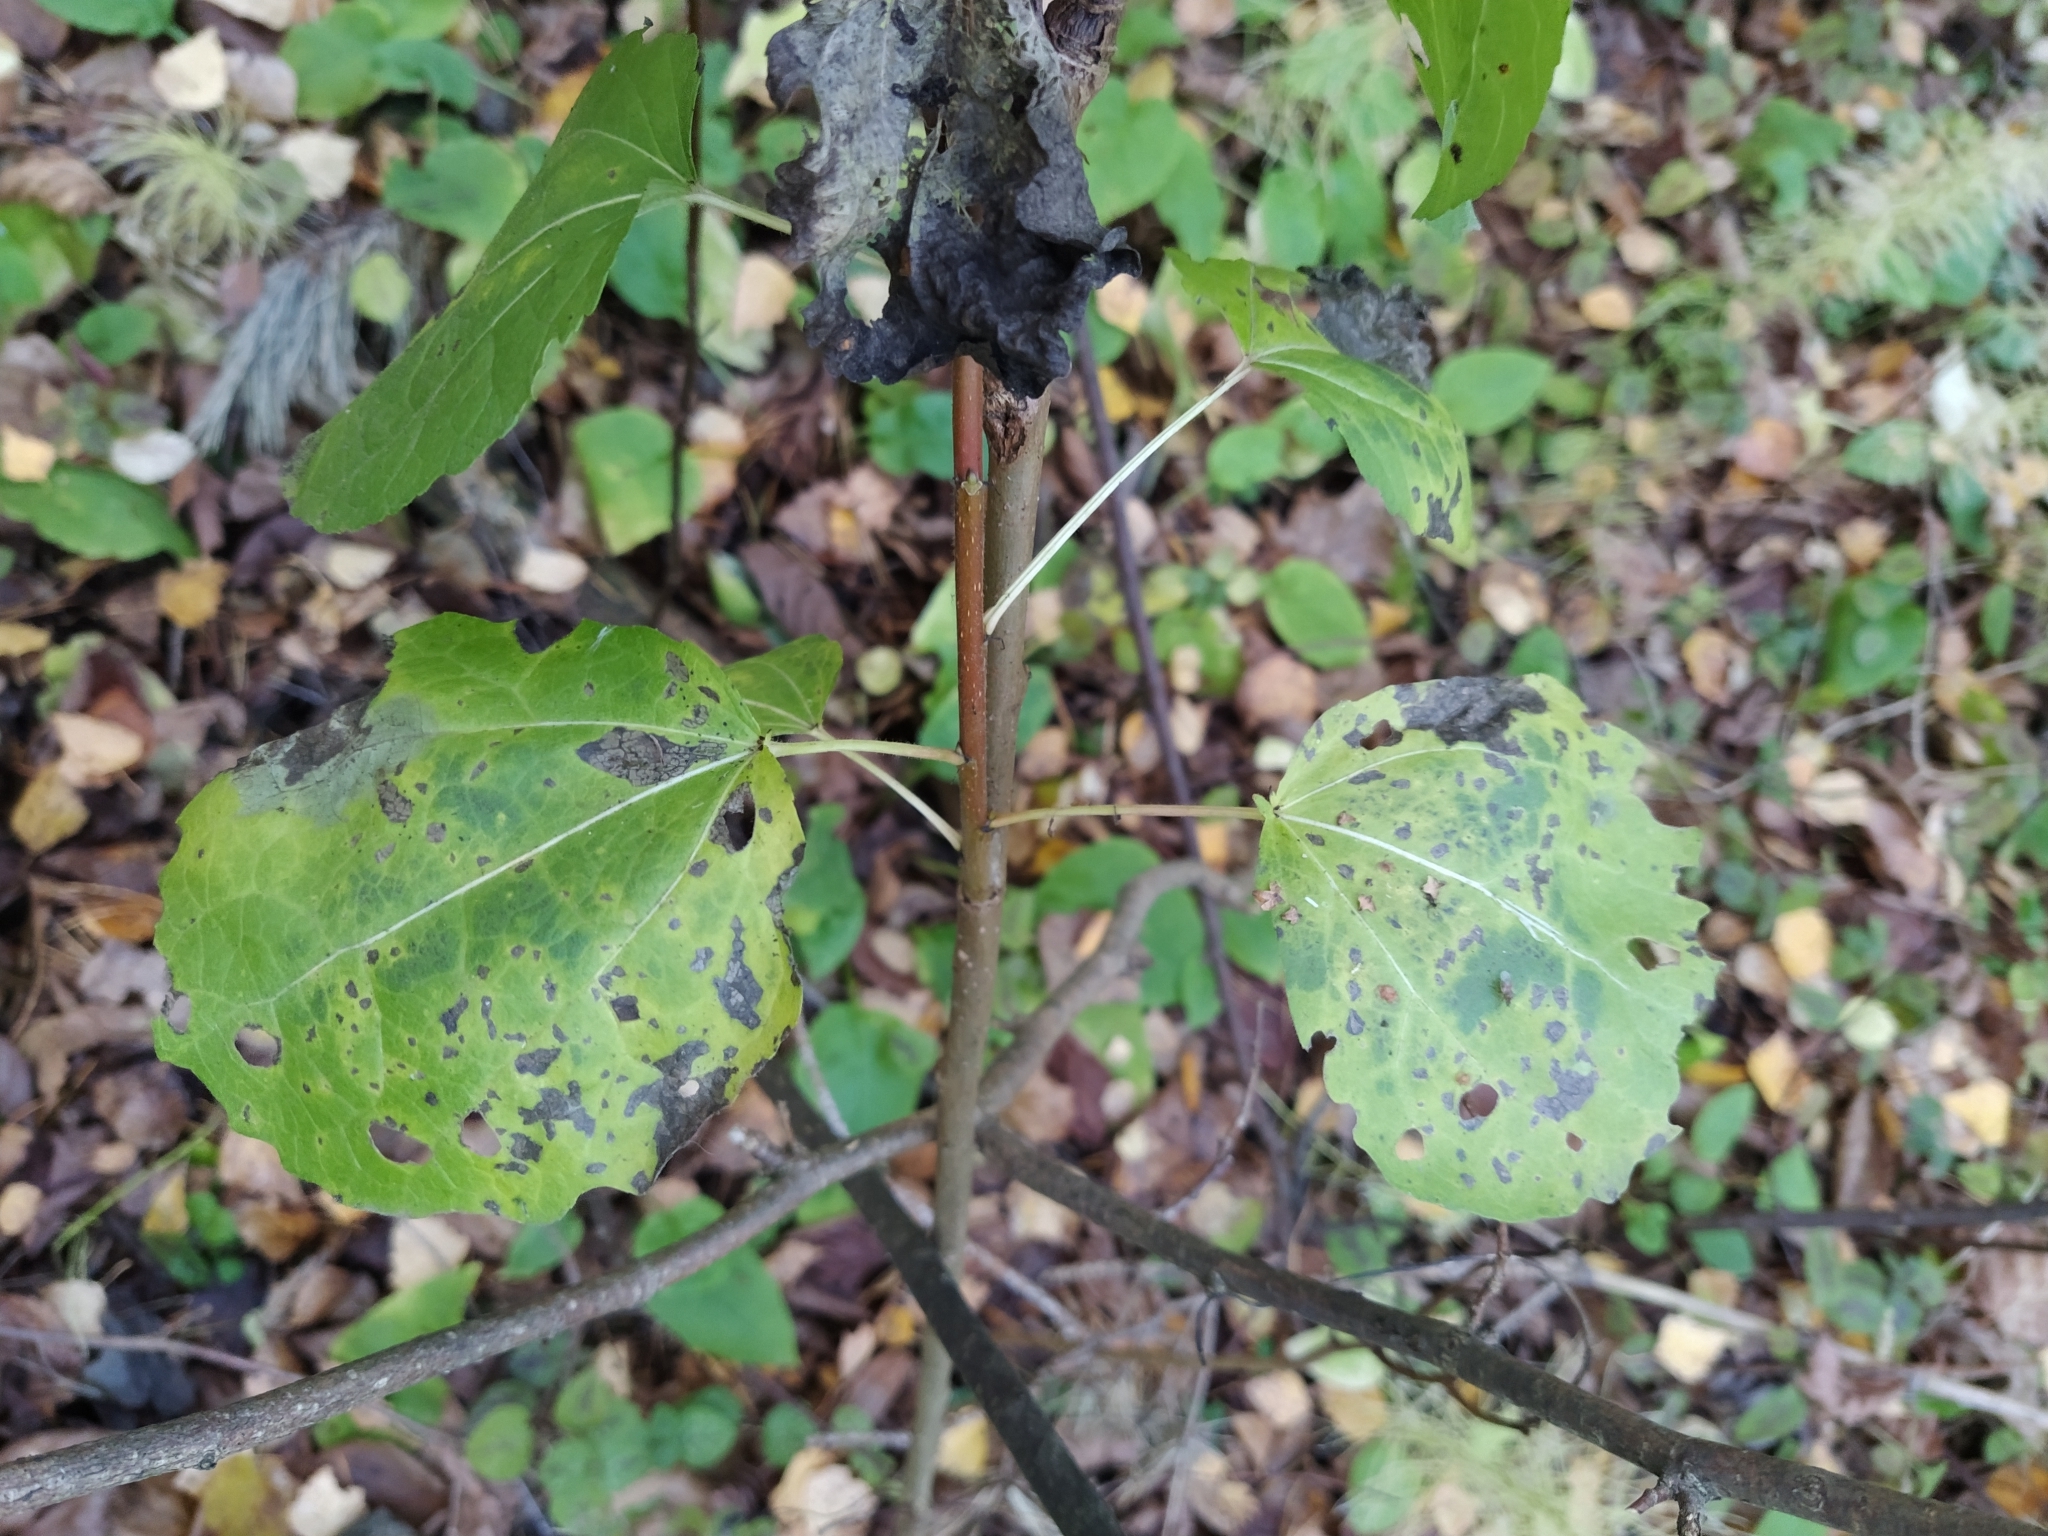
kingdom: Plantae
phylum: Tracheophyta
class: Magnoliopsida
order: Malpighiales
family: Salicaceae
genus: Populus
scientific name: Populus tremula
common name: European aspen
